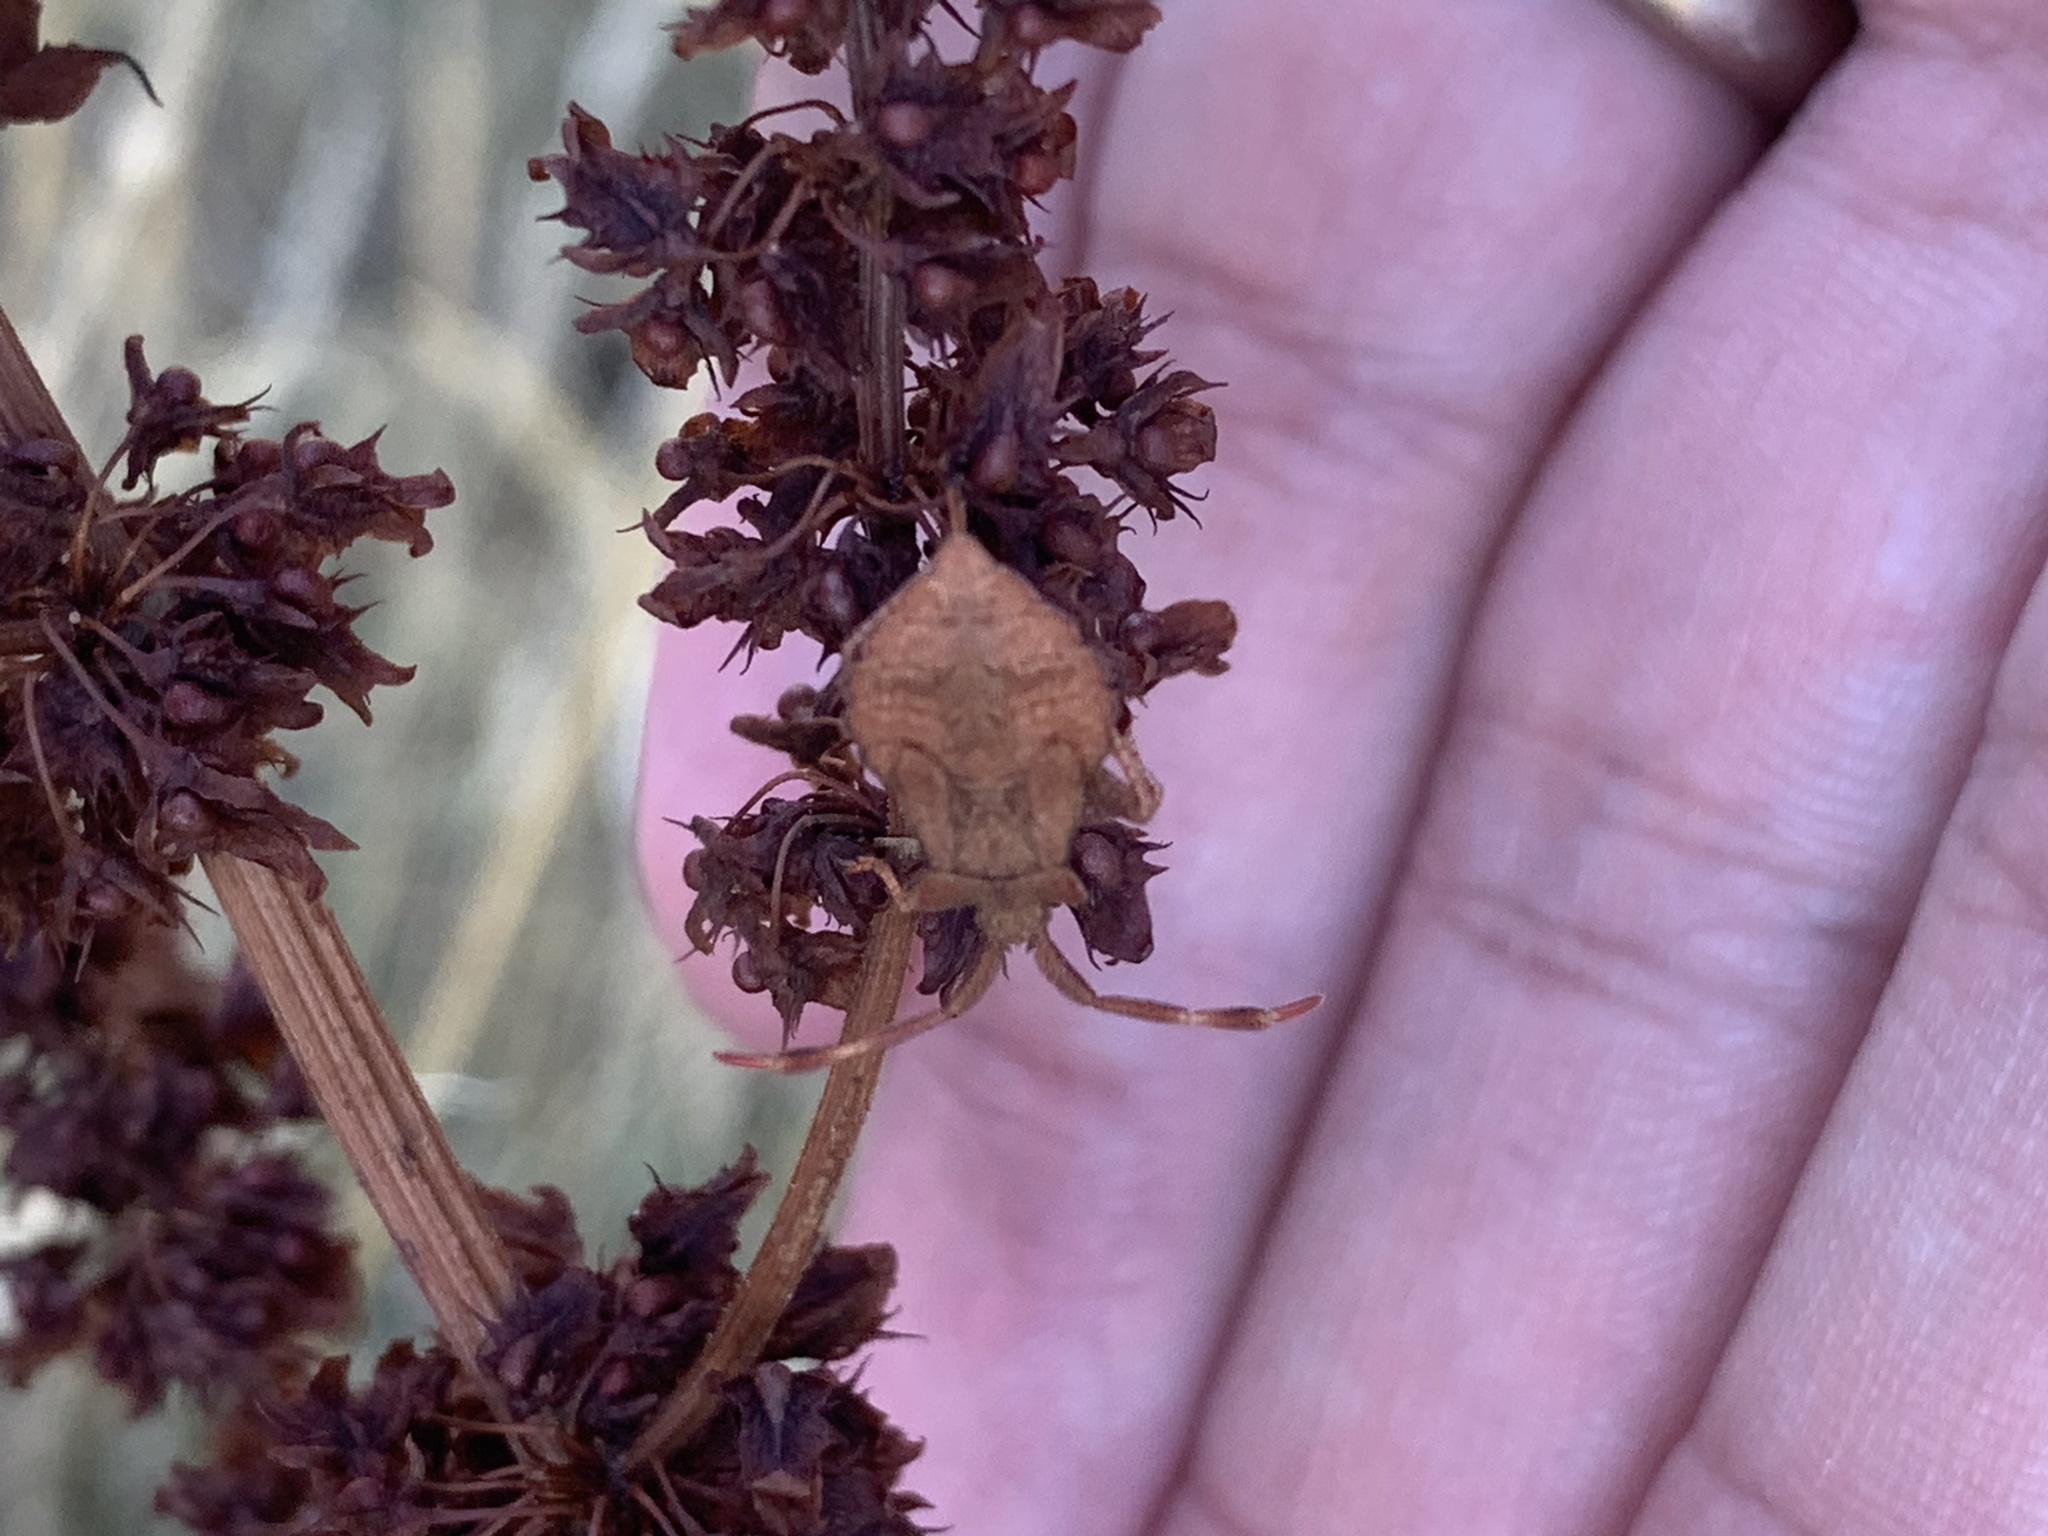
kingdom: Animalia
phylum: Arthropoda
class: Insecta
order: Hemiptera
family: Coreidae
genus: Coreus
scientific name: Coreus marginatus
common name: Dock bug
